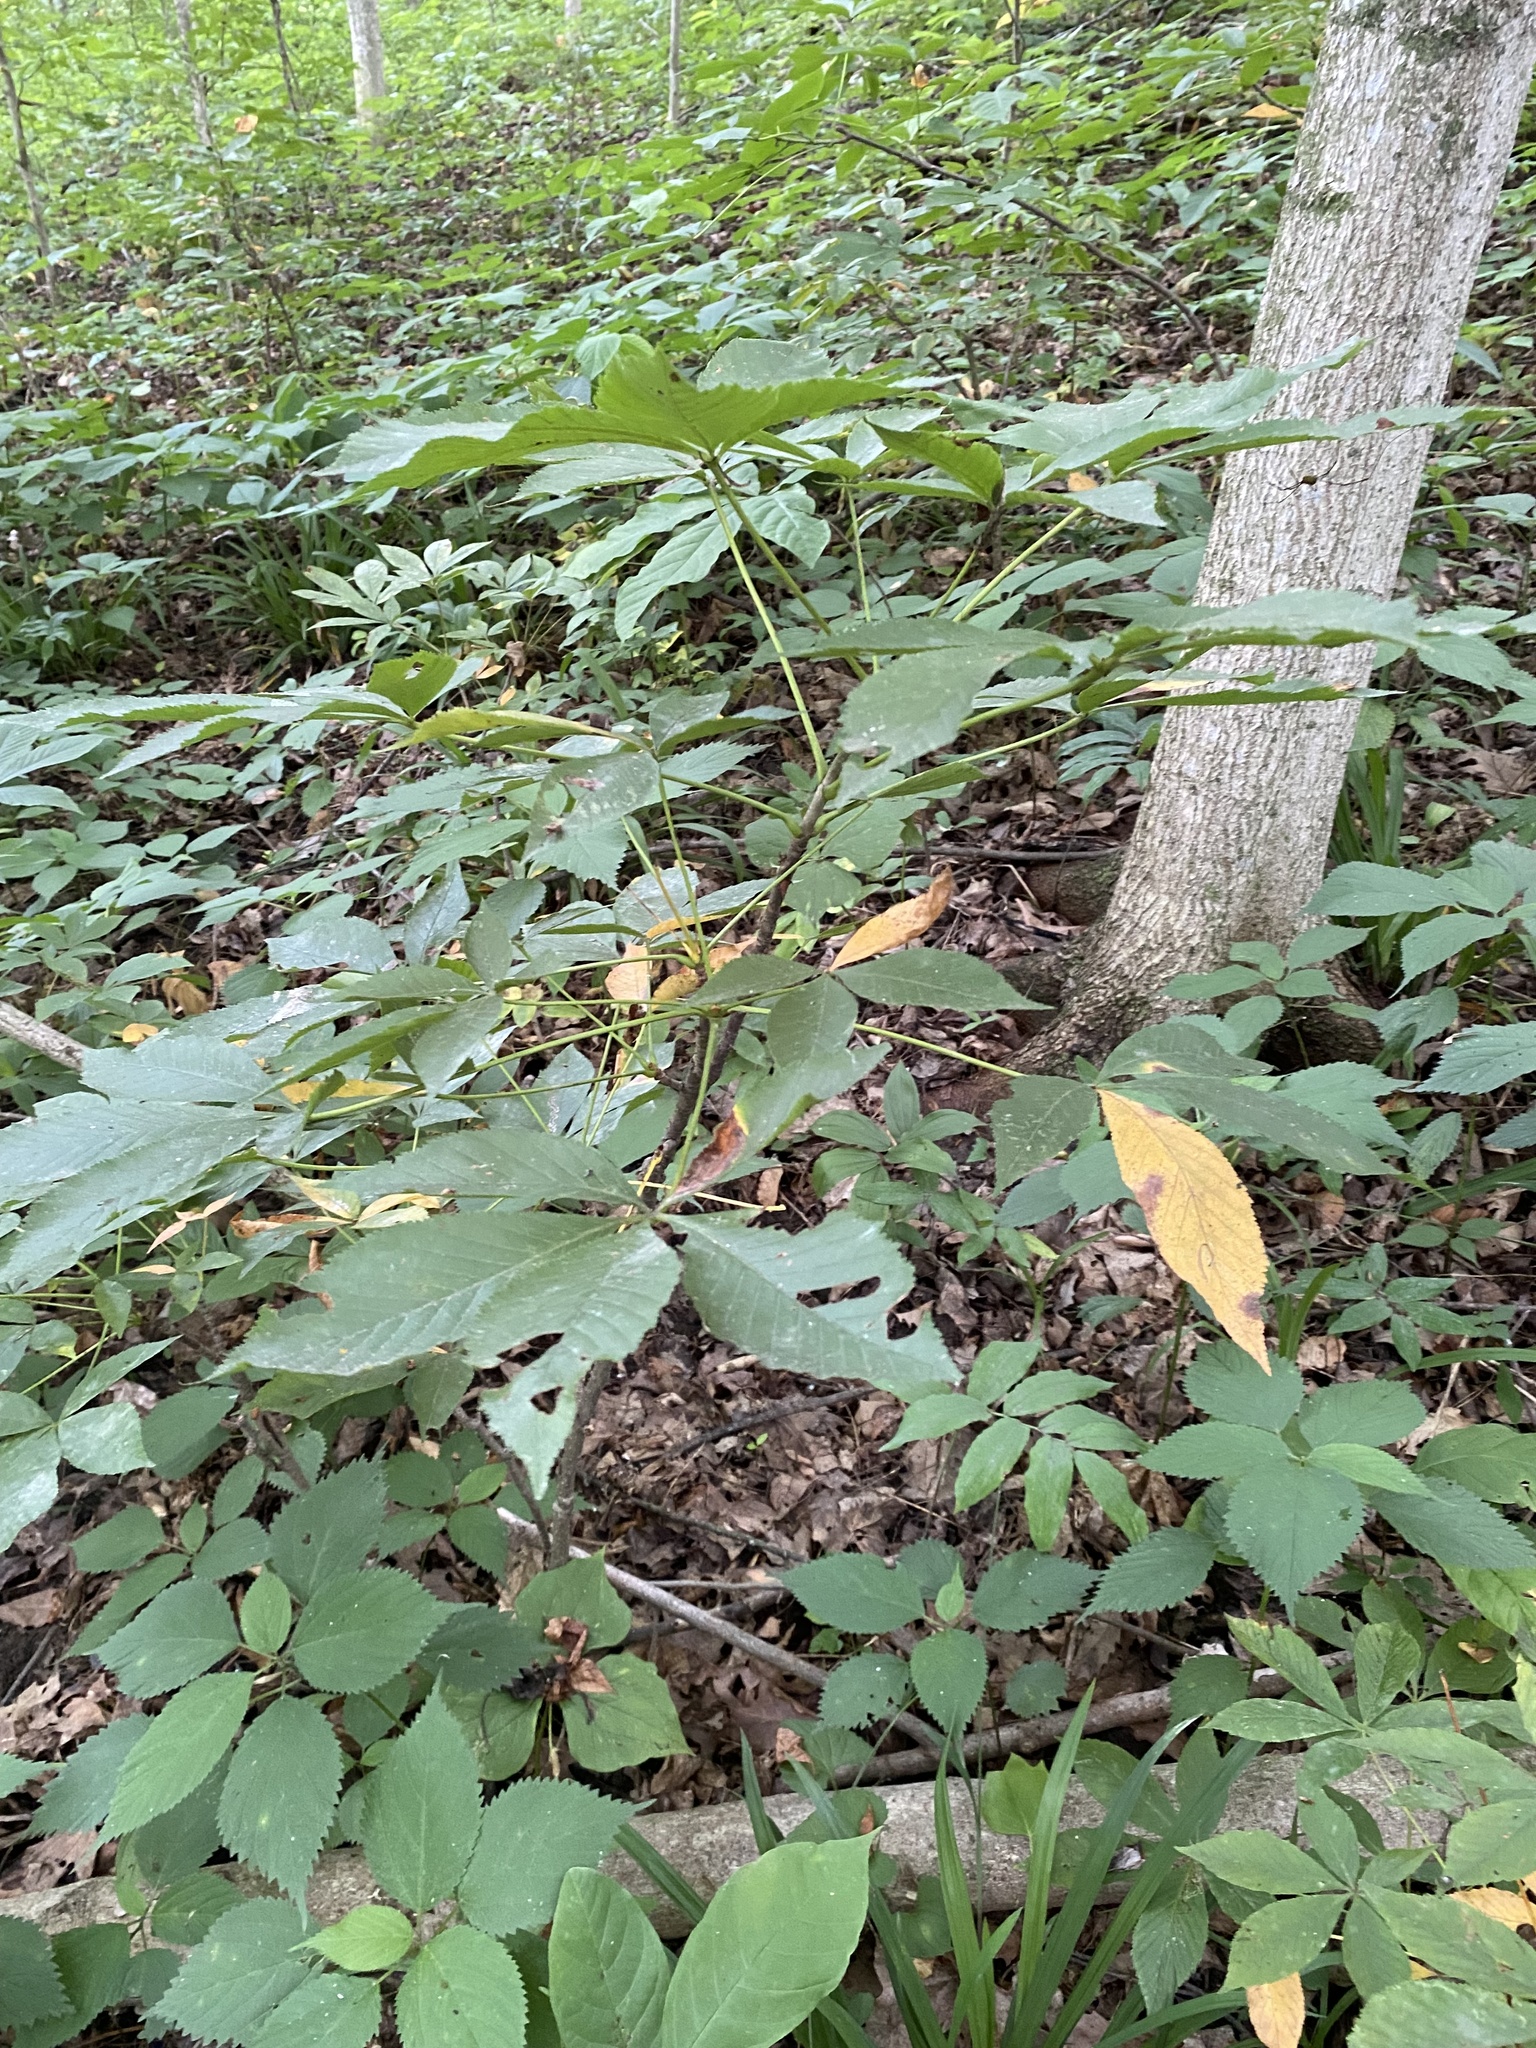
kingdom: Plantae
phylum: Tracheophyta
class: Magnoliopsida
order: Sapindales
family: Sapindaceae
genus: Aesculus
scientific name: Aesculus glabra
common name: Ohio buckeye
